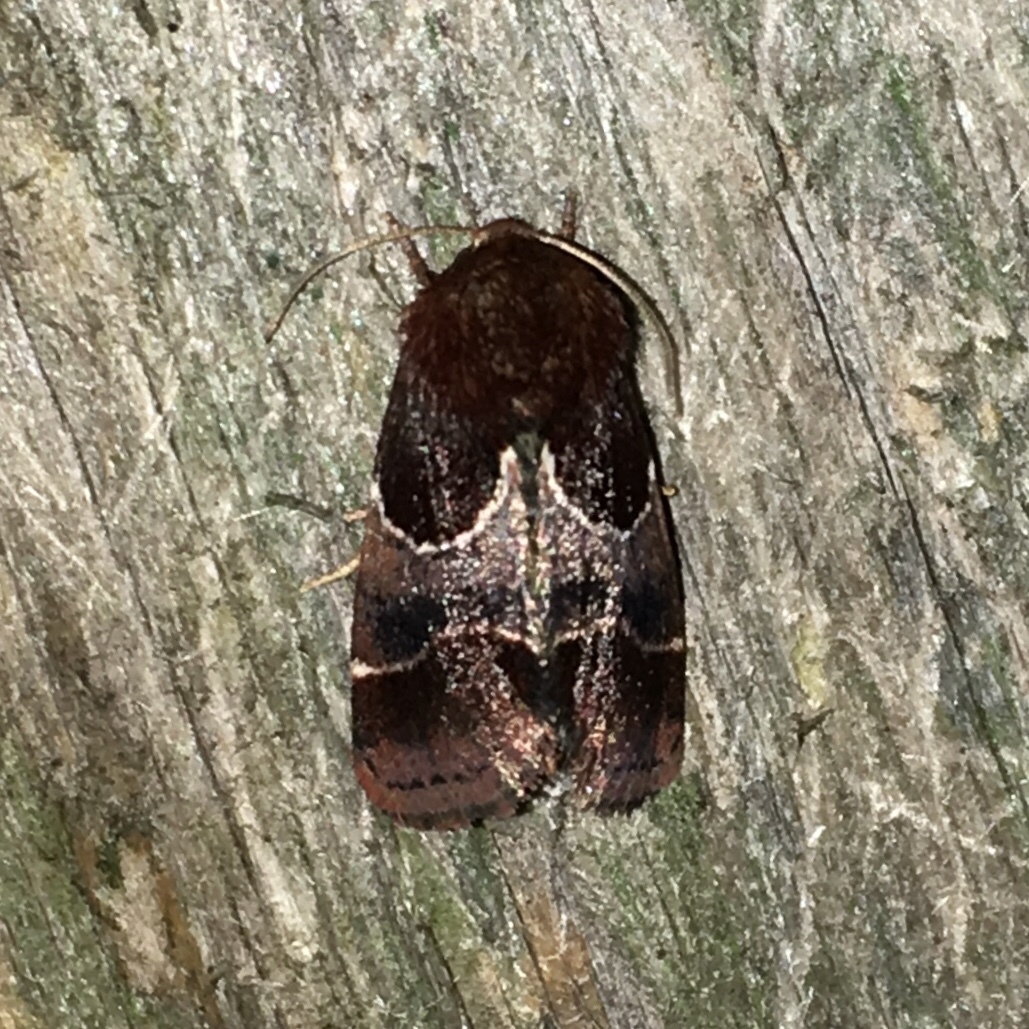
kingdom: Animalia
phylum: Arthropoda
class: Insecta
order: Lepidoptera
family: Noctuidae
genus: Schinia
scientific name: Schinia arcigera
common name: Arcigera flower moth
